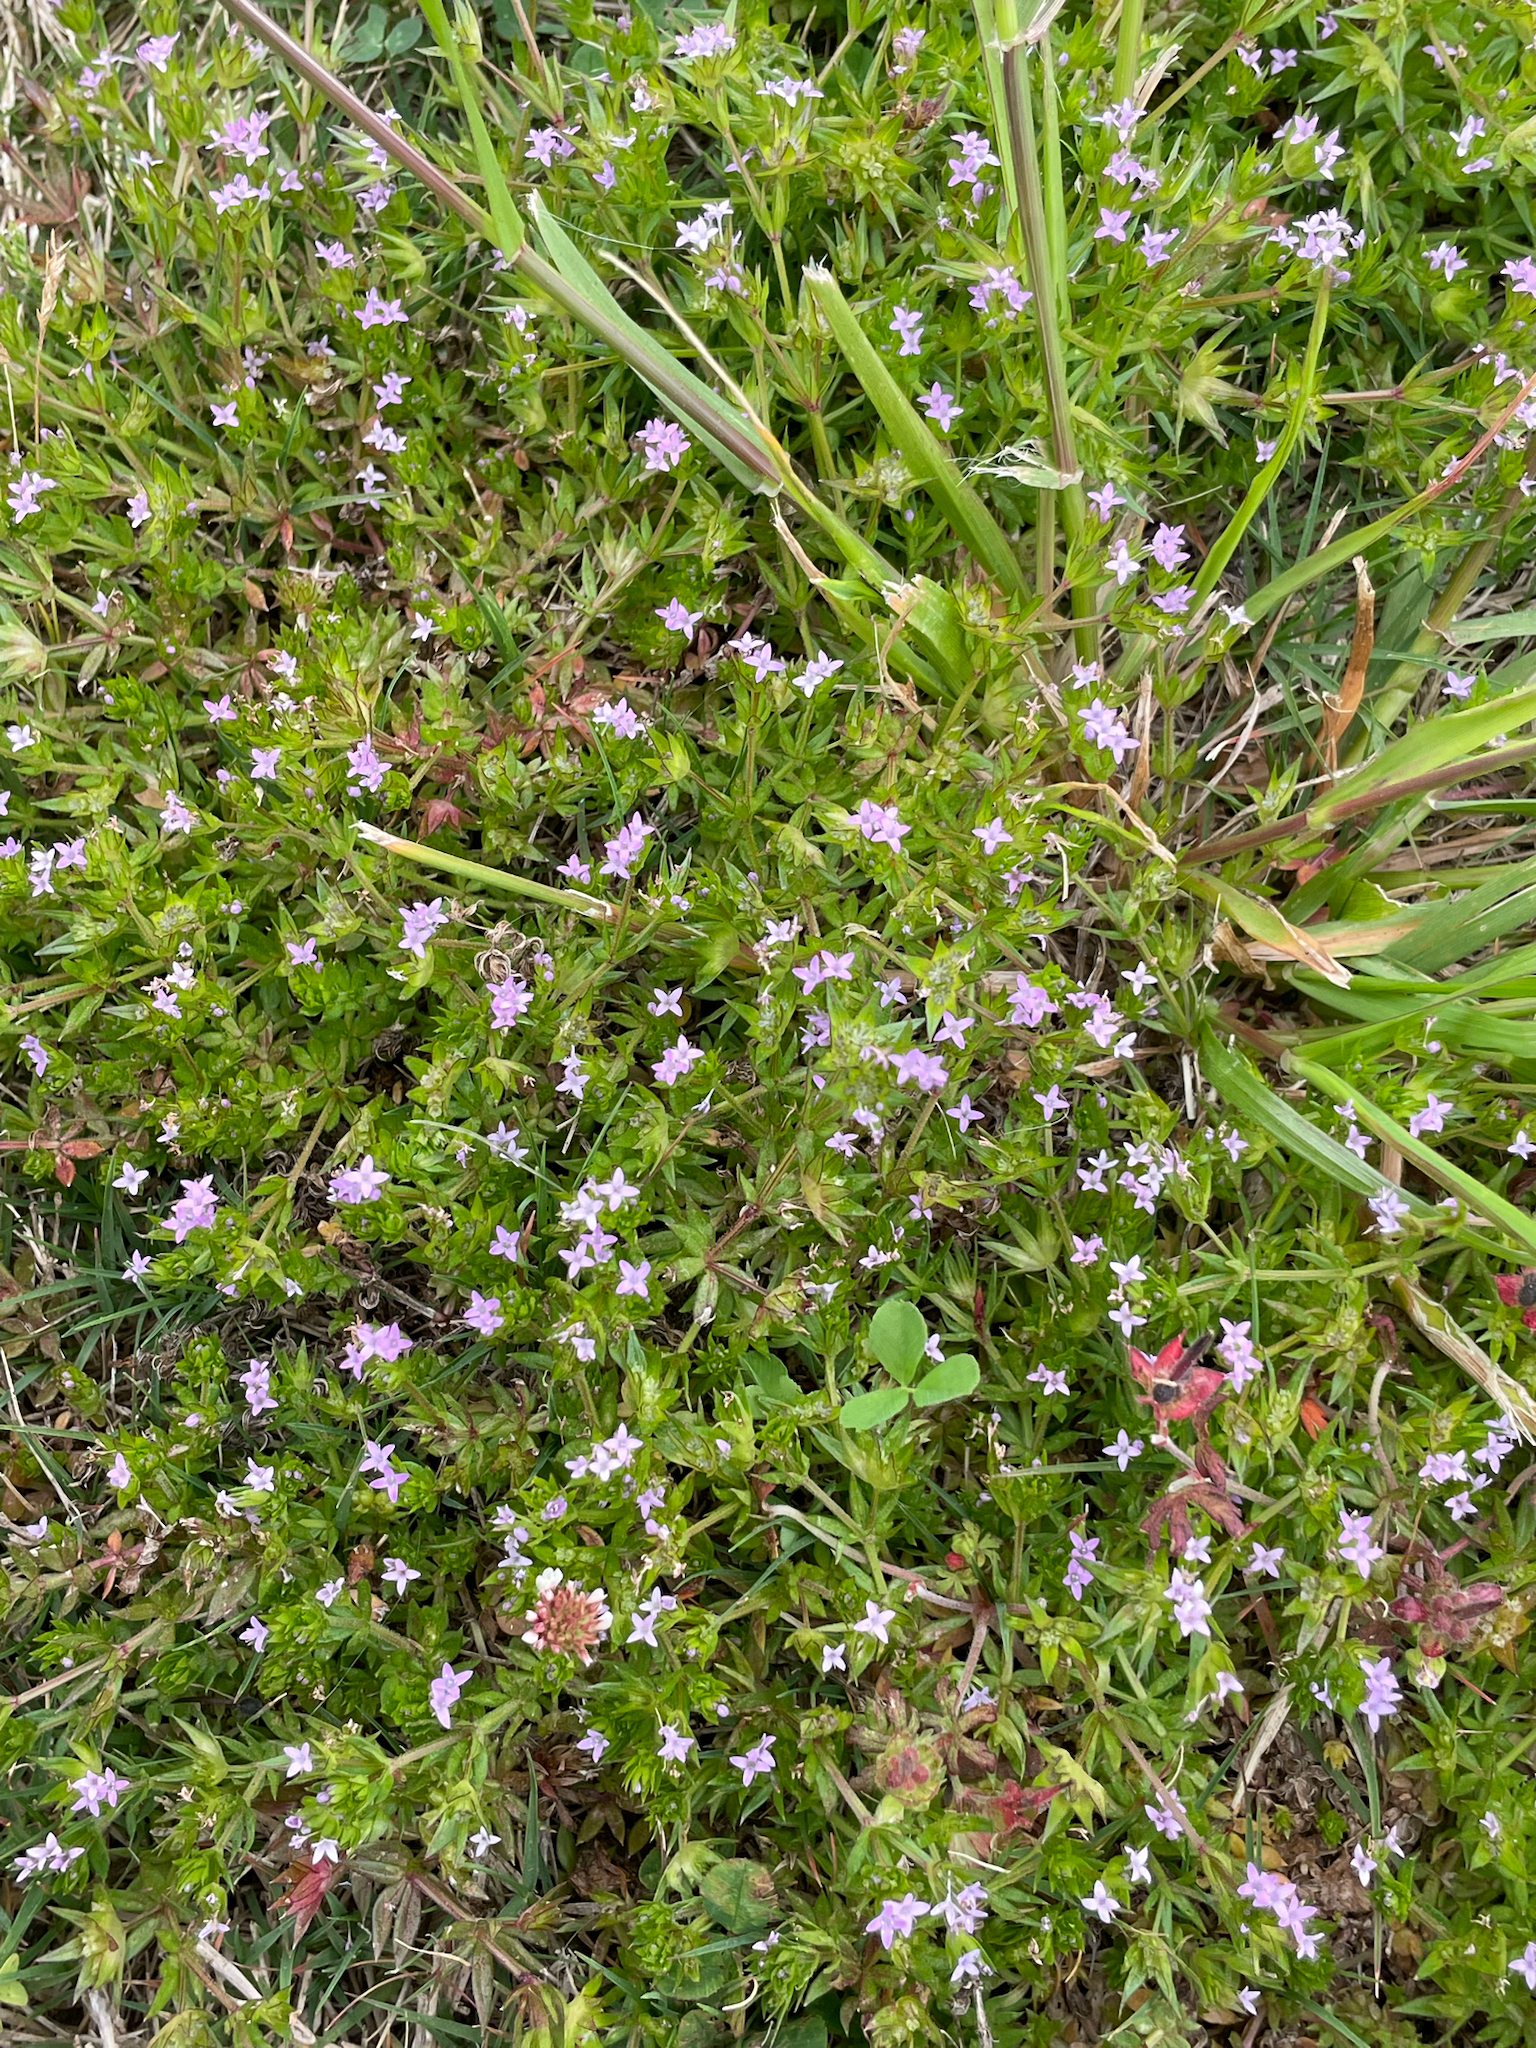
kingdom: Plantae
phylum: Tracheophyta
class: Magnoliopsida
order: Gentianales
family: Rubiaceae
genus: Sherardia
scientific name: Sherardia arvensis
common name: Field madder
